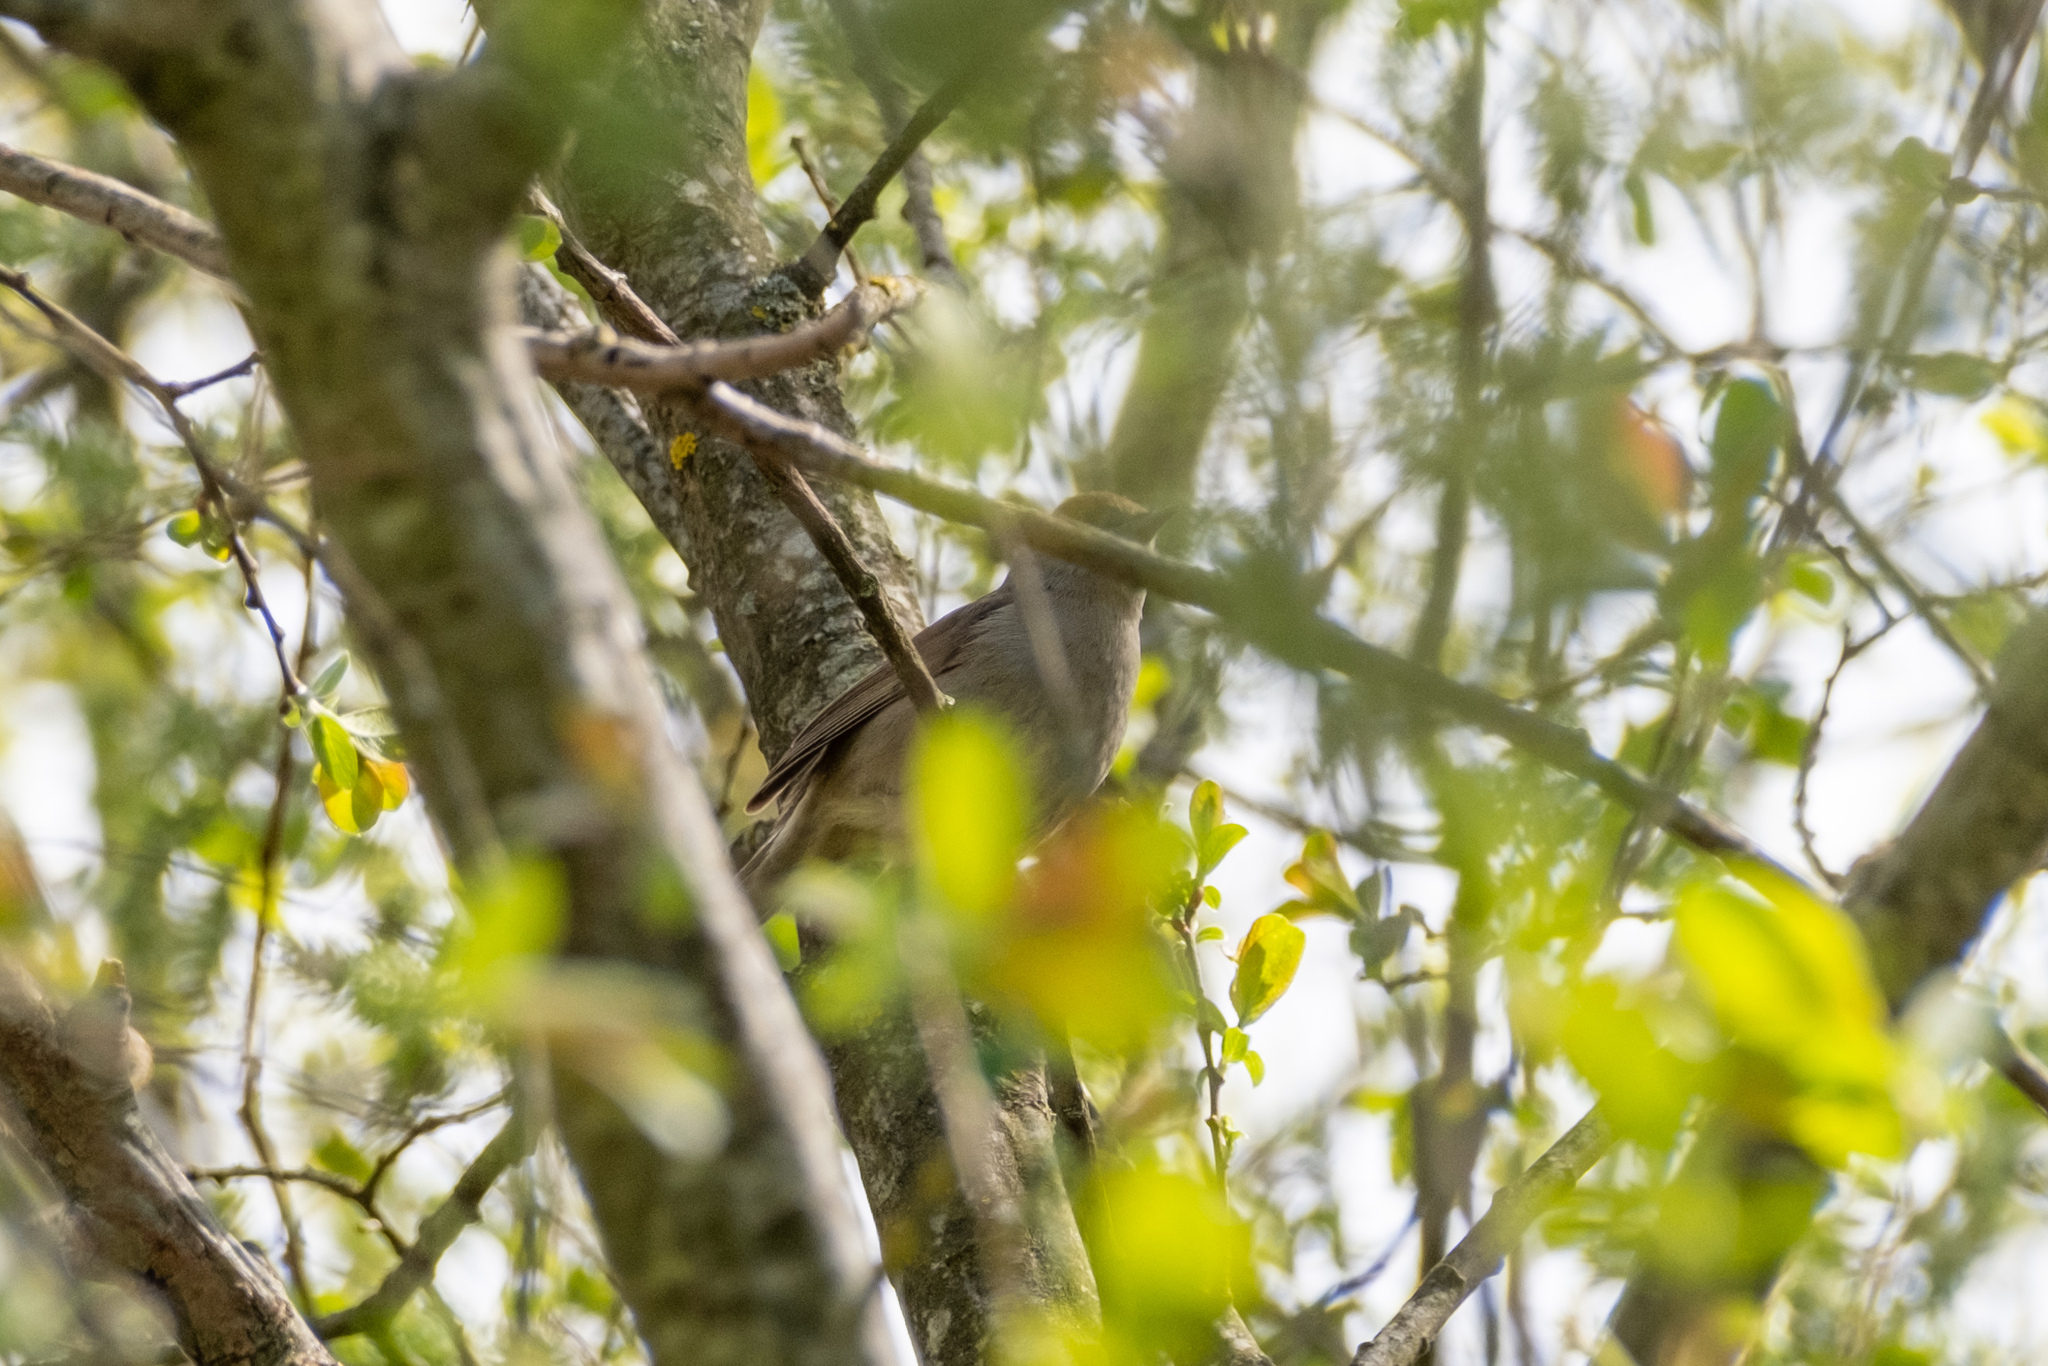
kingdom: Animalia
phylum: Chordata
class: Aves
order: Passeriformes
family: Sylviidae
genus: Sylvia
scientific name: Sylvia atricapilla
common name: Eurasian blackcap
